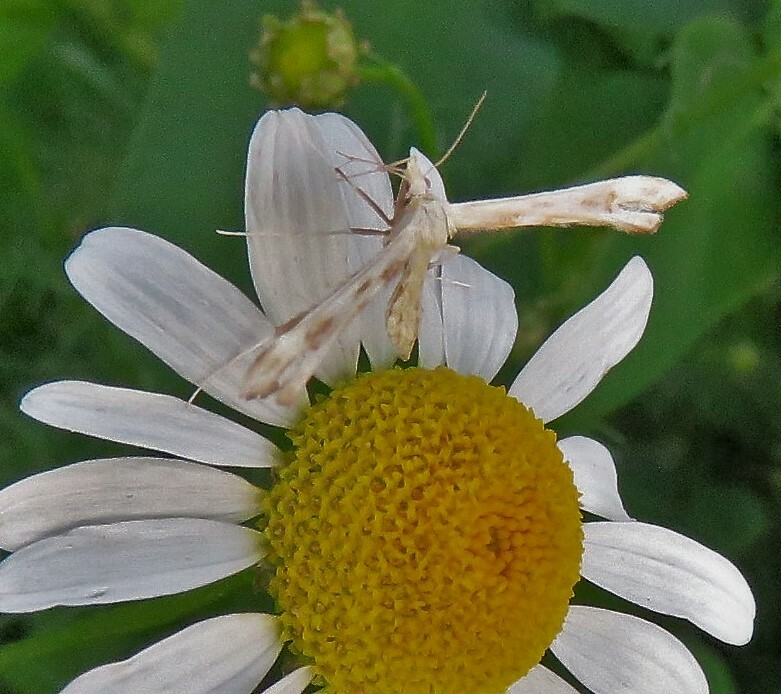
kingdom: Animalia
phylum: Arthropoda
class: Insecta
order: Lepidoptera
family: Pterophoridae
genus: Gillmeria
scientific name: Gillmeria pallidactyla
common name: Yarrow plume
